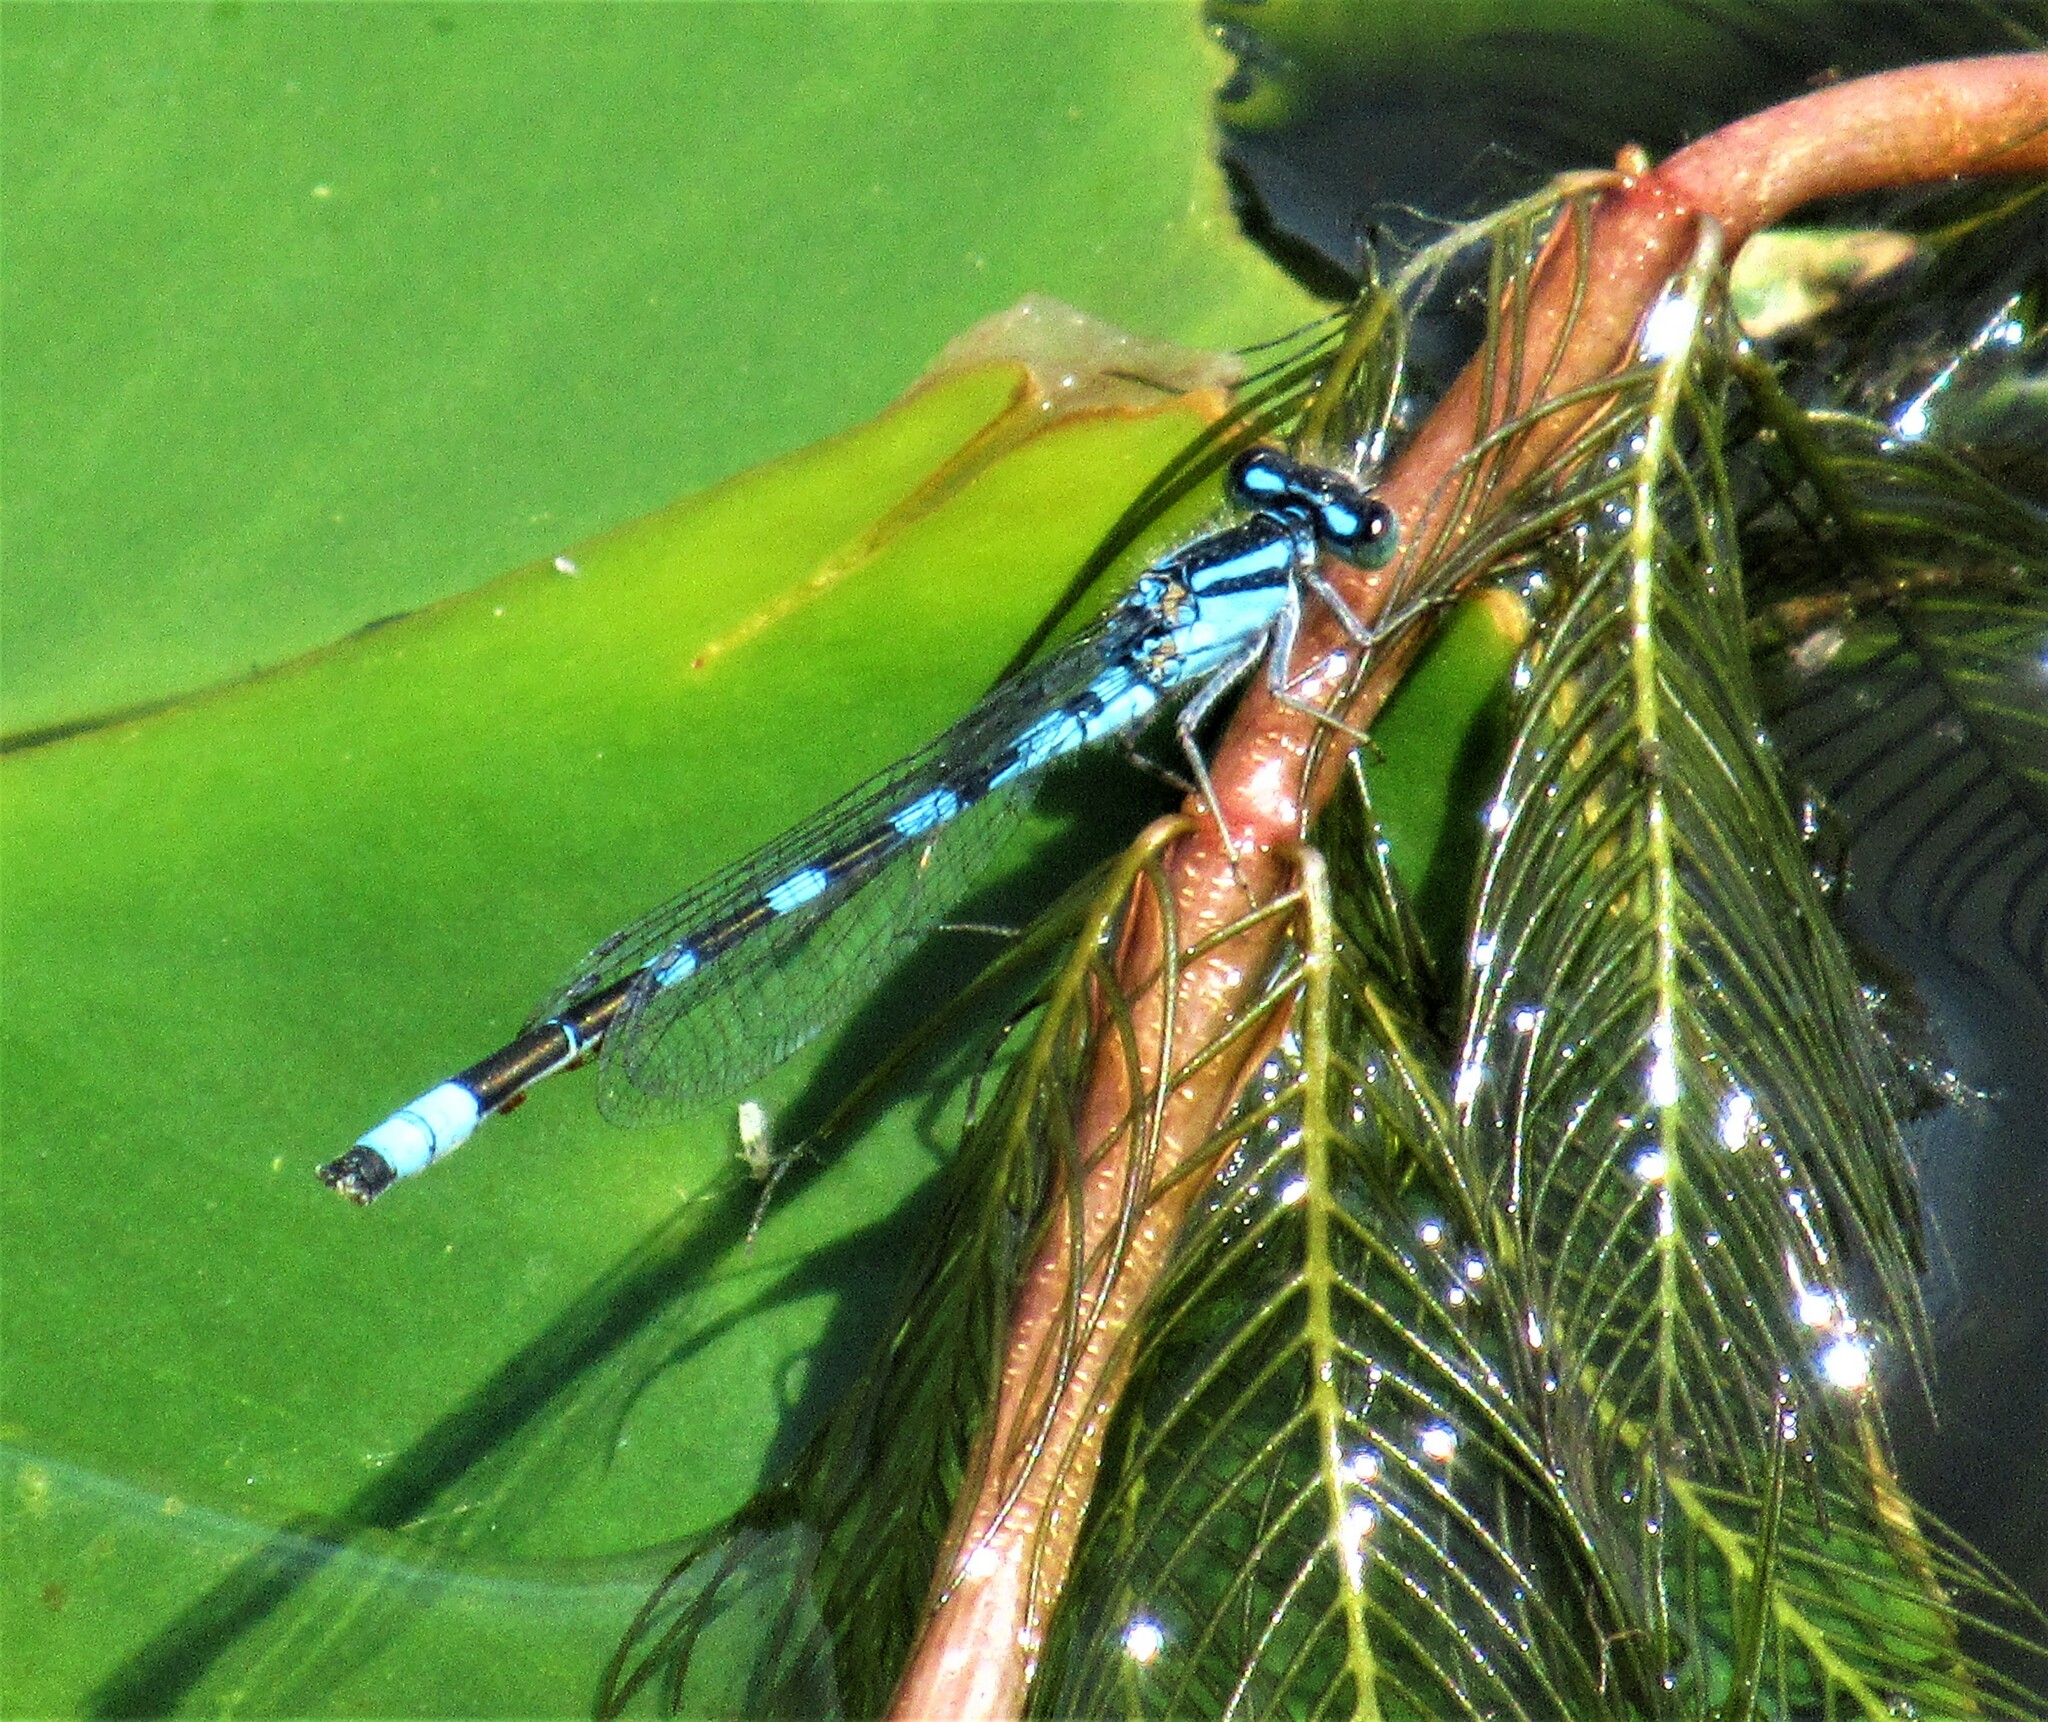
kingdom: Animalia
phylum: Arthropoda
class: Insecta
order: Odonata
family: Coenagrionidae
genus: Enallagma
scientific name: Enallagma carunculatum
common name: Tule bluet
